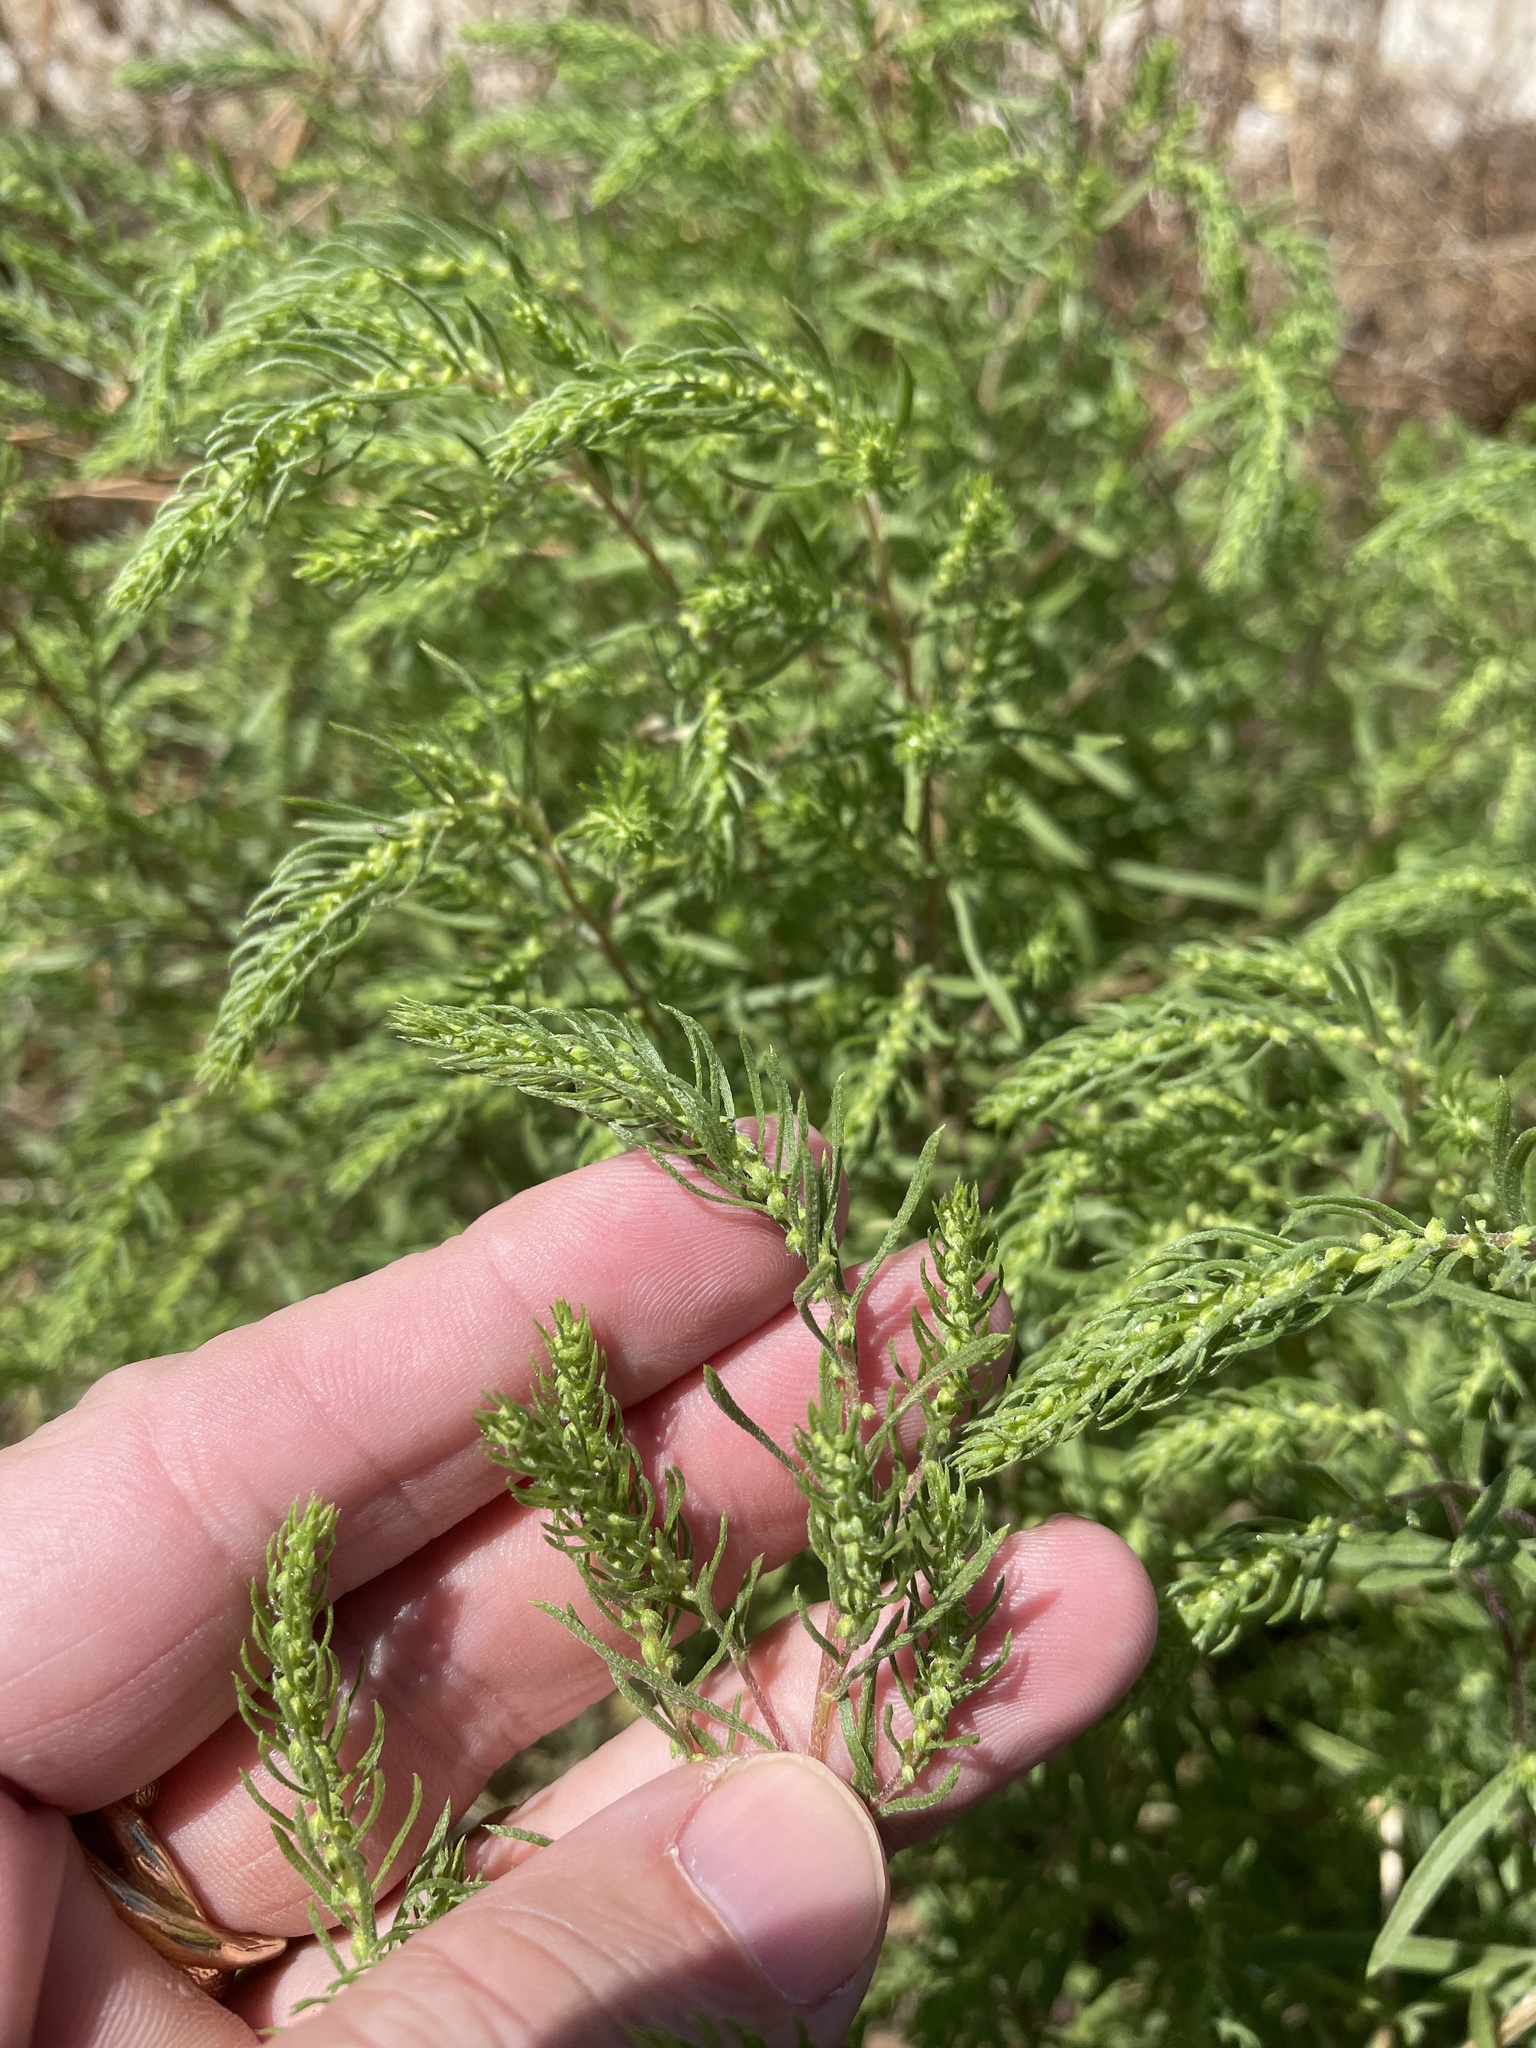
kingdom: Plantae
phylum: Tracheophyta
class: Magnoliopsida
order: Asterales
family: Asteraceae
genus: Iva
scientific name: Iva asperifolia
